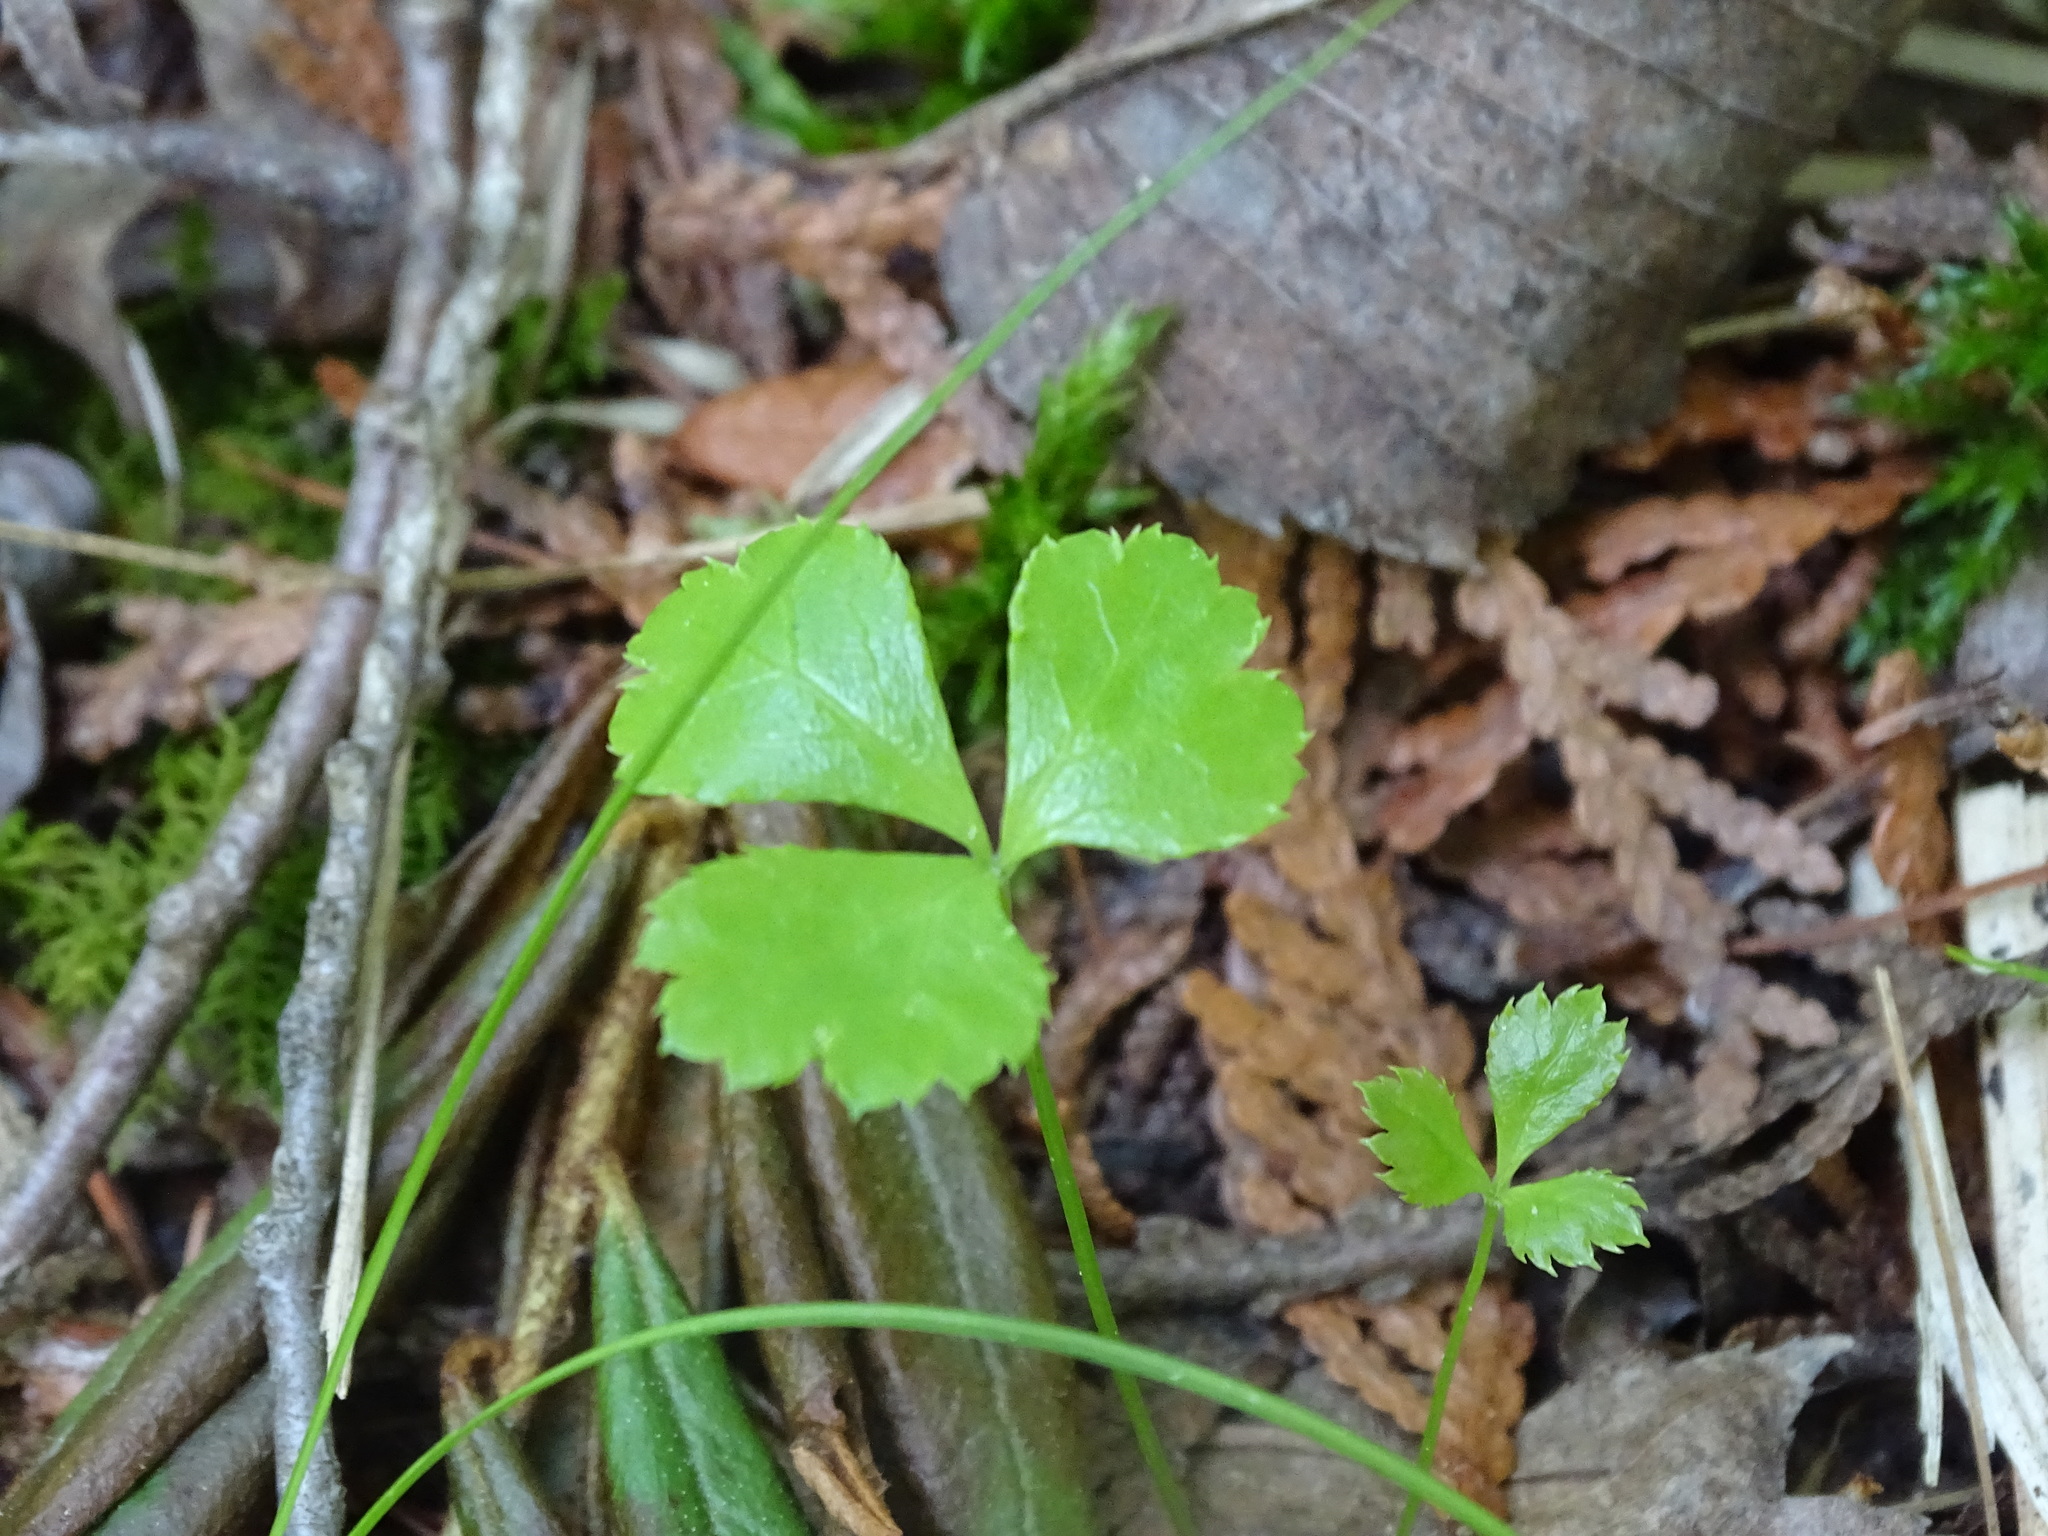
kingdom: Plantae
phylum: Tracheophyta
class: Magnoliopsida
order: Ranunculales
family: Ranunculaceae
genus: Coptis
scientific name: Coptis trifolia
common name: Canker-root
